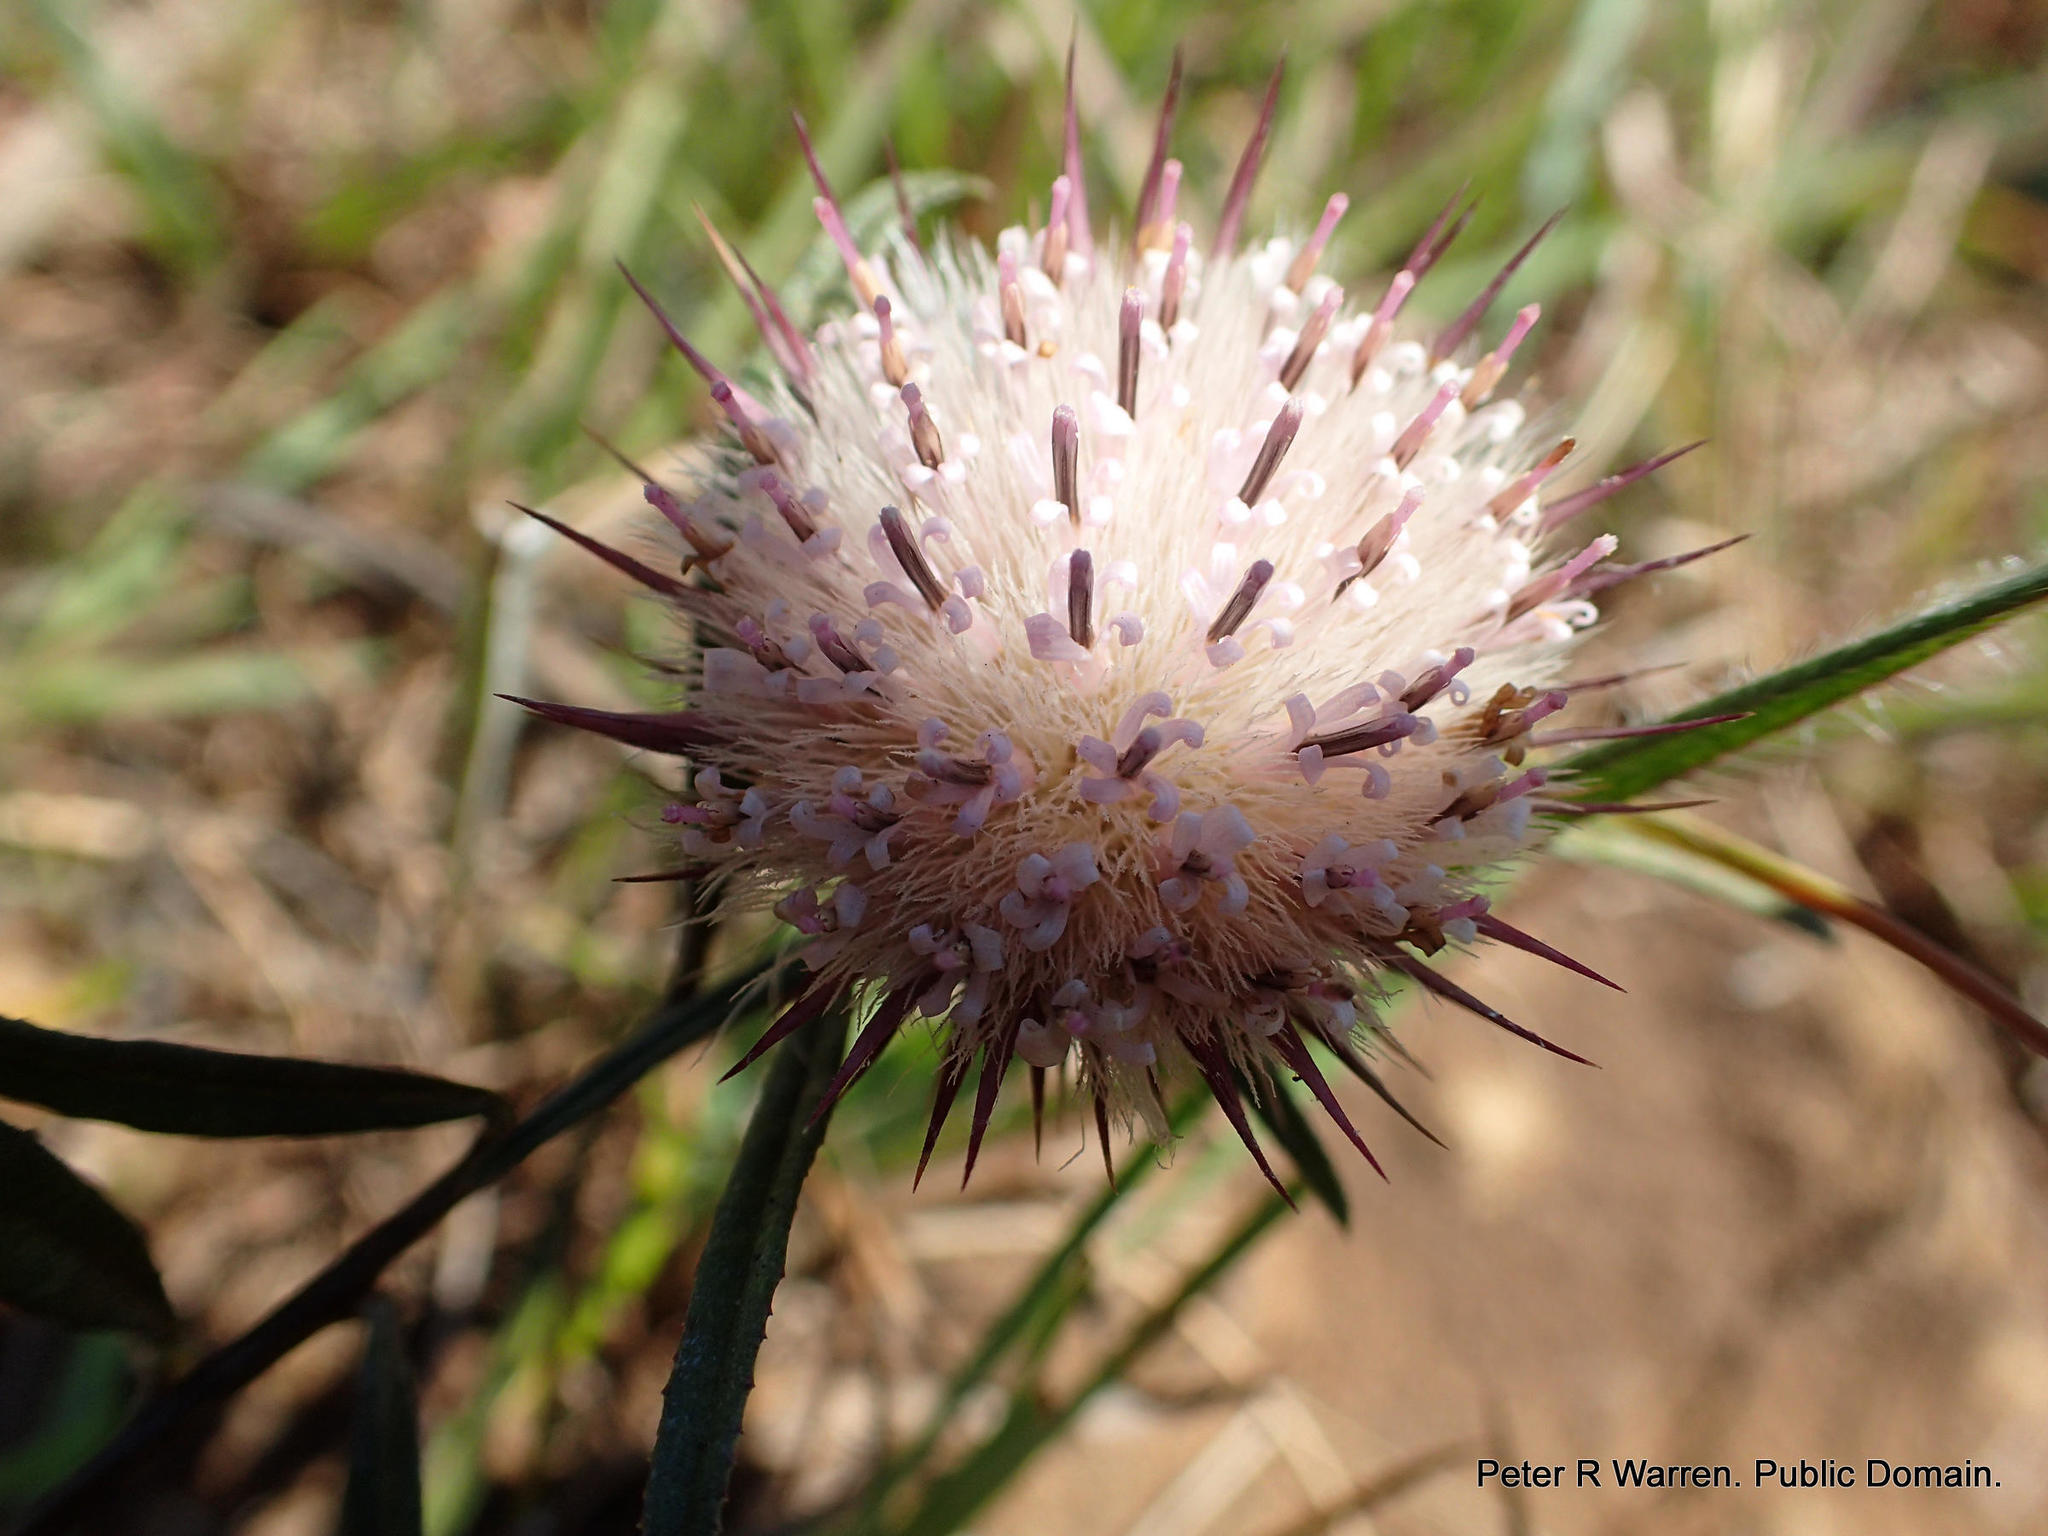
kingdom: Plantae
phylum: Tracheophyta
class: Magnoliopsida
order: Asterales
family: Asteraceae
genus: Dicoma
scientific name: Dicoma anomala
